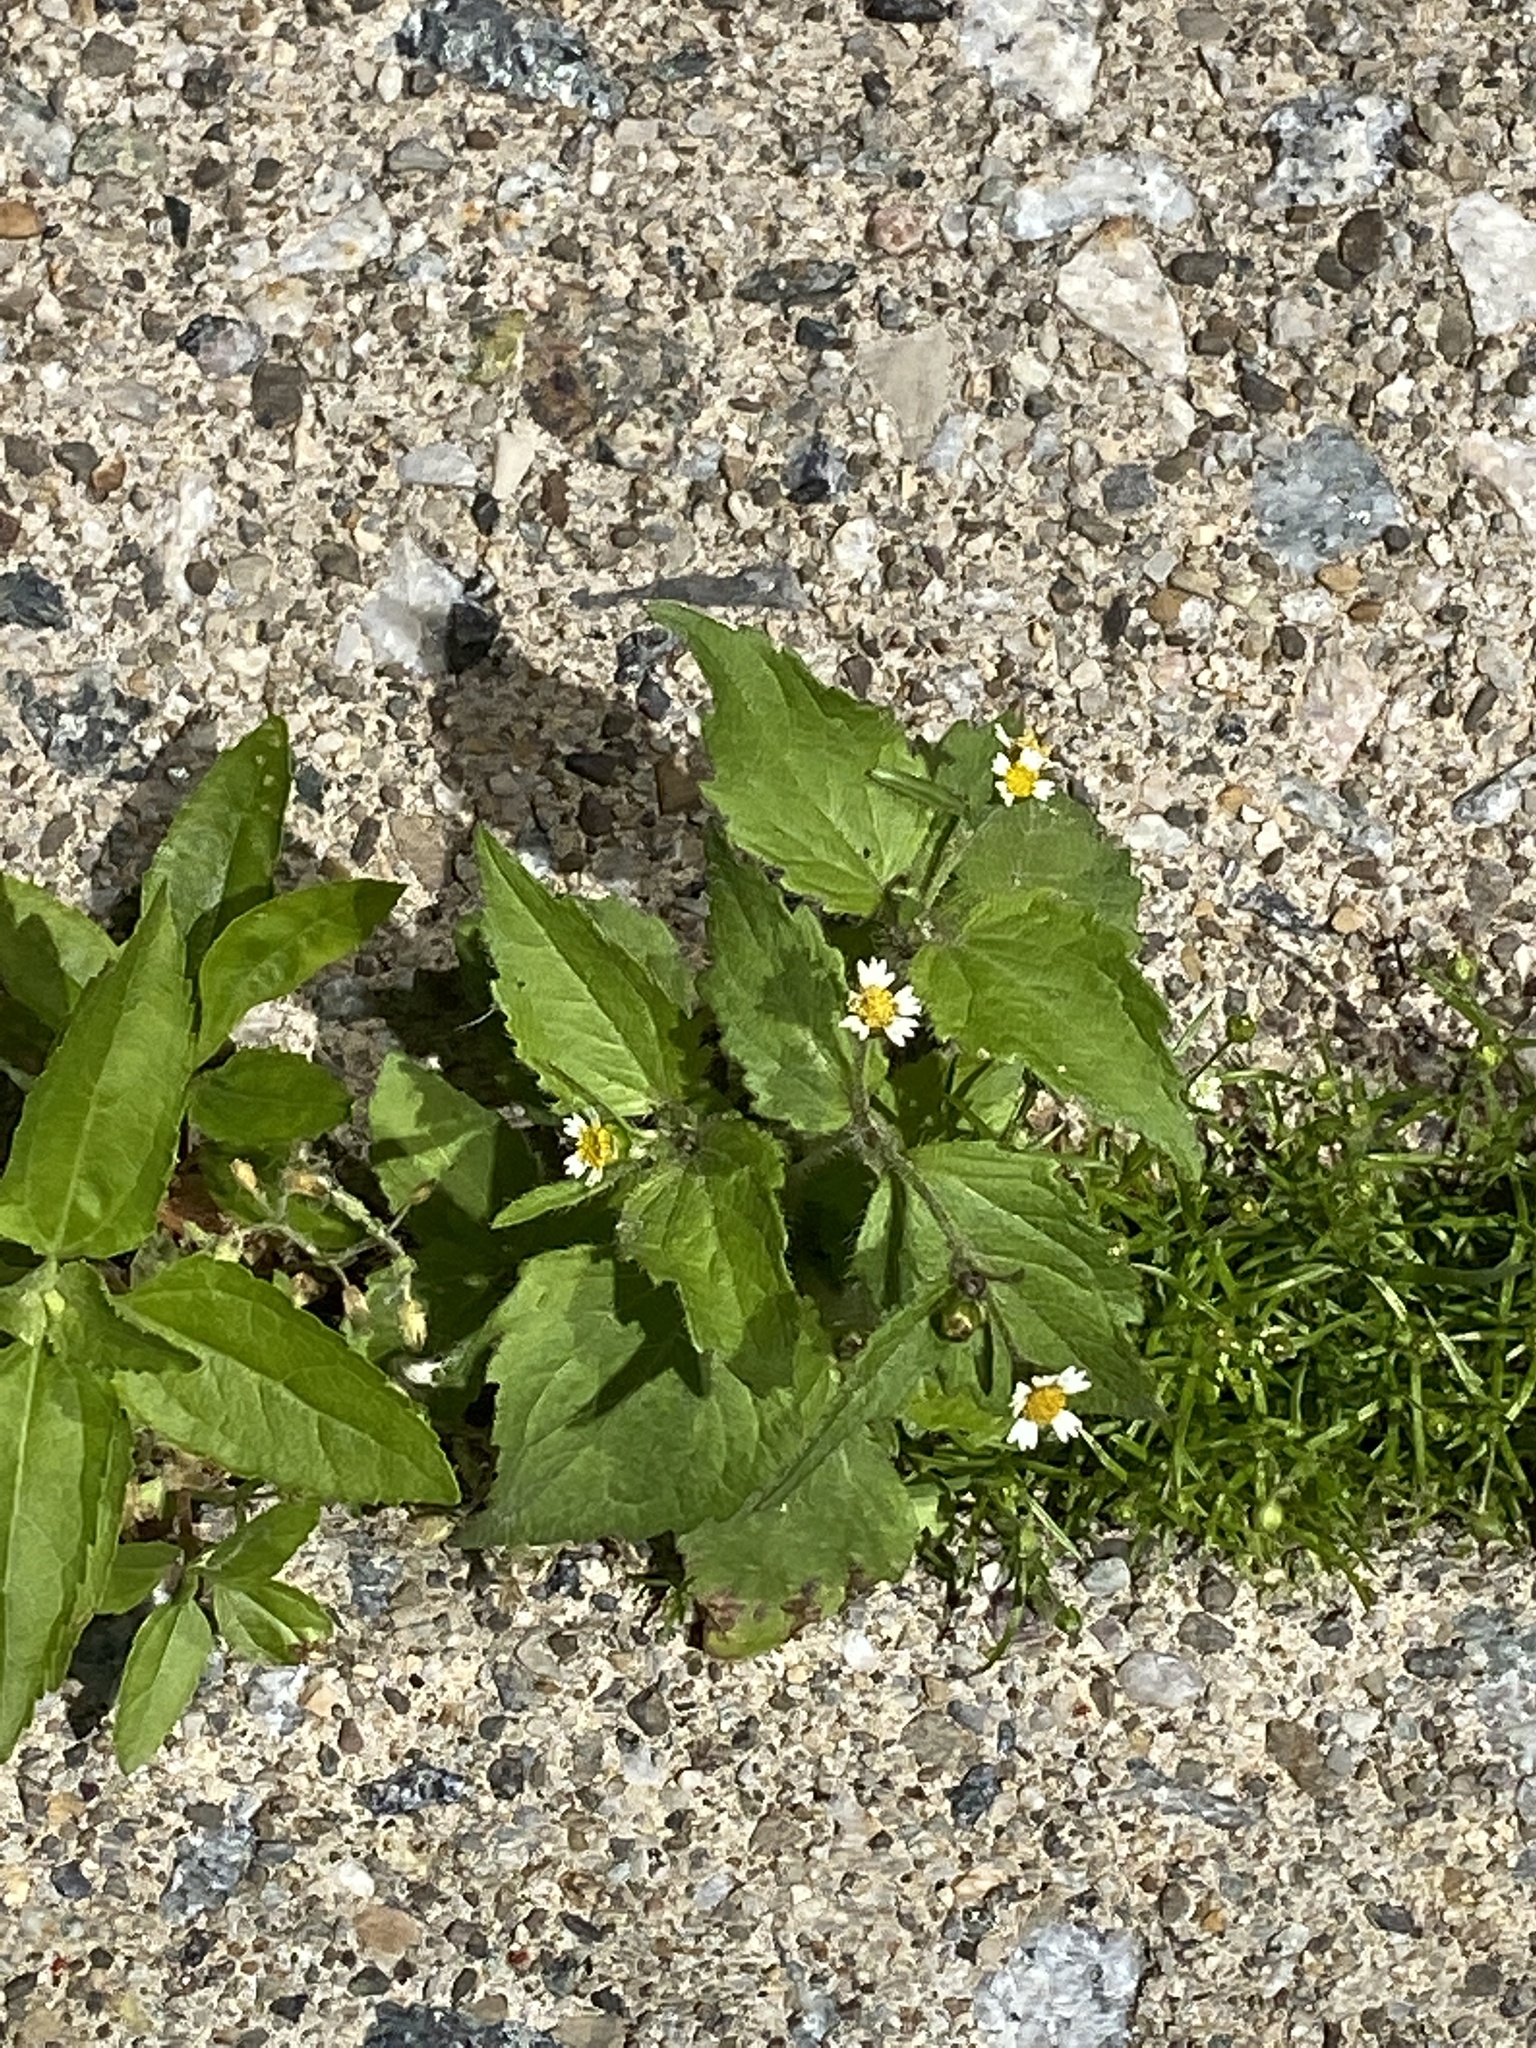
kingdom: Plantae
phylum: Tracheophyta
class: Magnoliopsida
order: Asterales
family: Asteraceae
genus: Galinsoga
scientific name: Galinsoga quadriradiata
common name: Shaggy soldier
